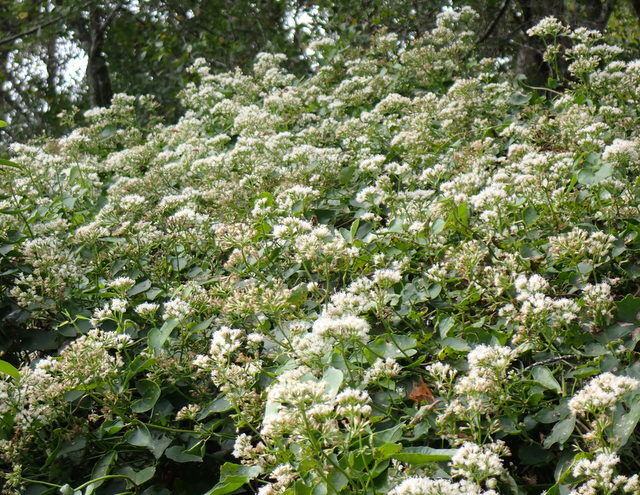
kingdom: Plantae
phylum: Tracheophyta
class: Magnoliopsida
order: Asterales
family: Asteraceae
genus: Mikania
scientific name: Mikania scandens
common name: Climbing hempvine
